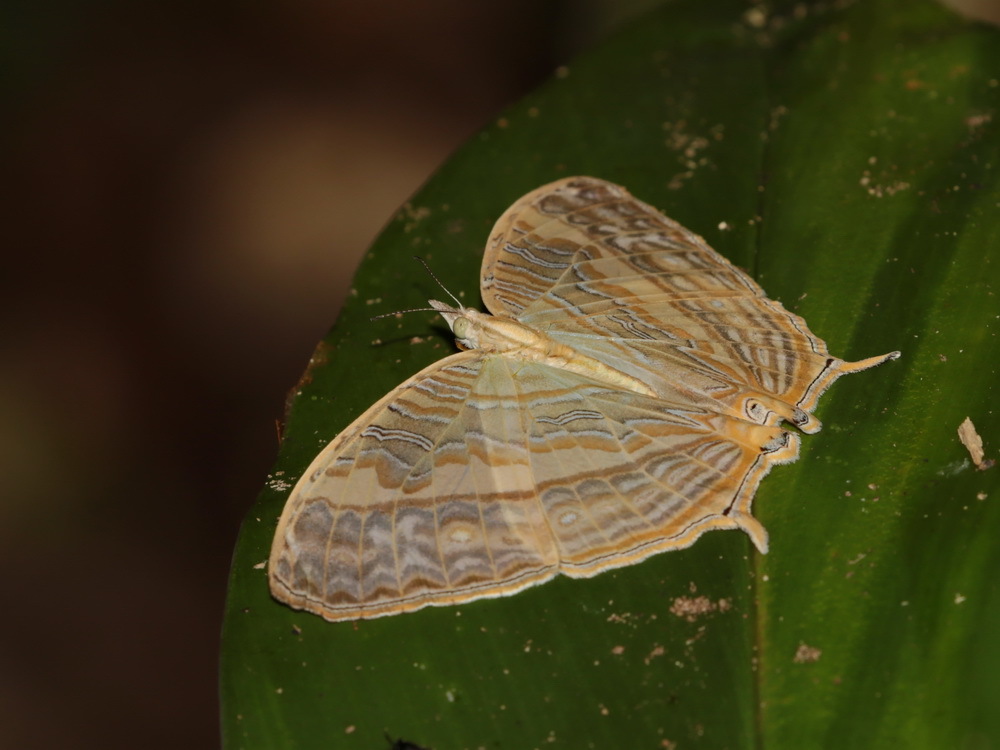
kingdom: Animalia
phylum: Arthropoda
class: Insecta
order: Lepidoptera
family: Nymphalidae
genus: Cyrestis
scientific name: Cyrestis cocles
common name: Marbled map
